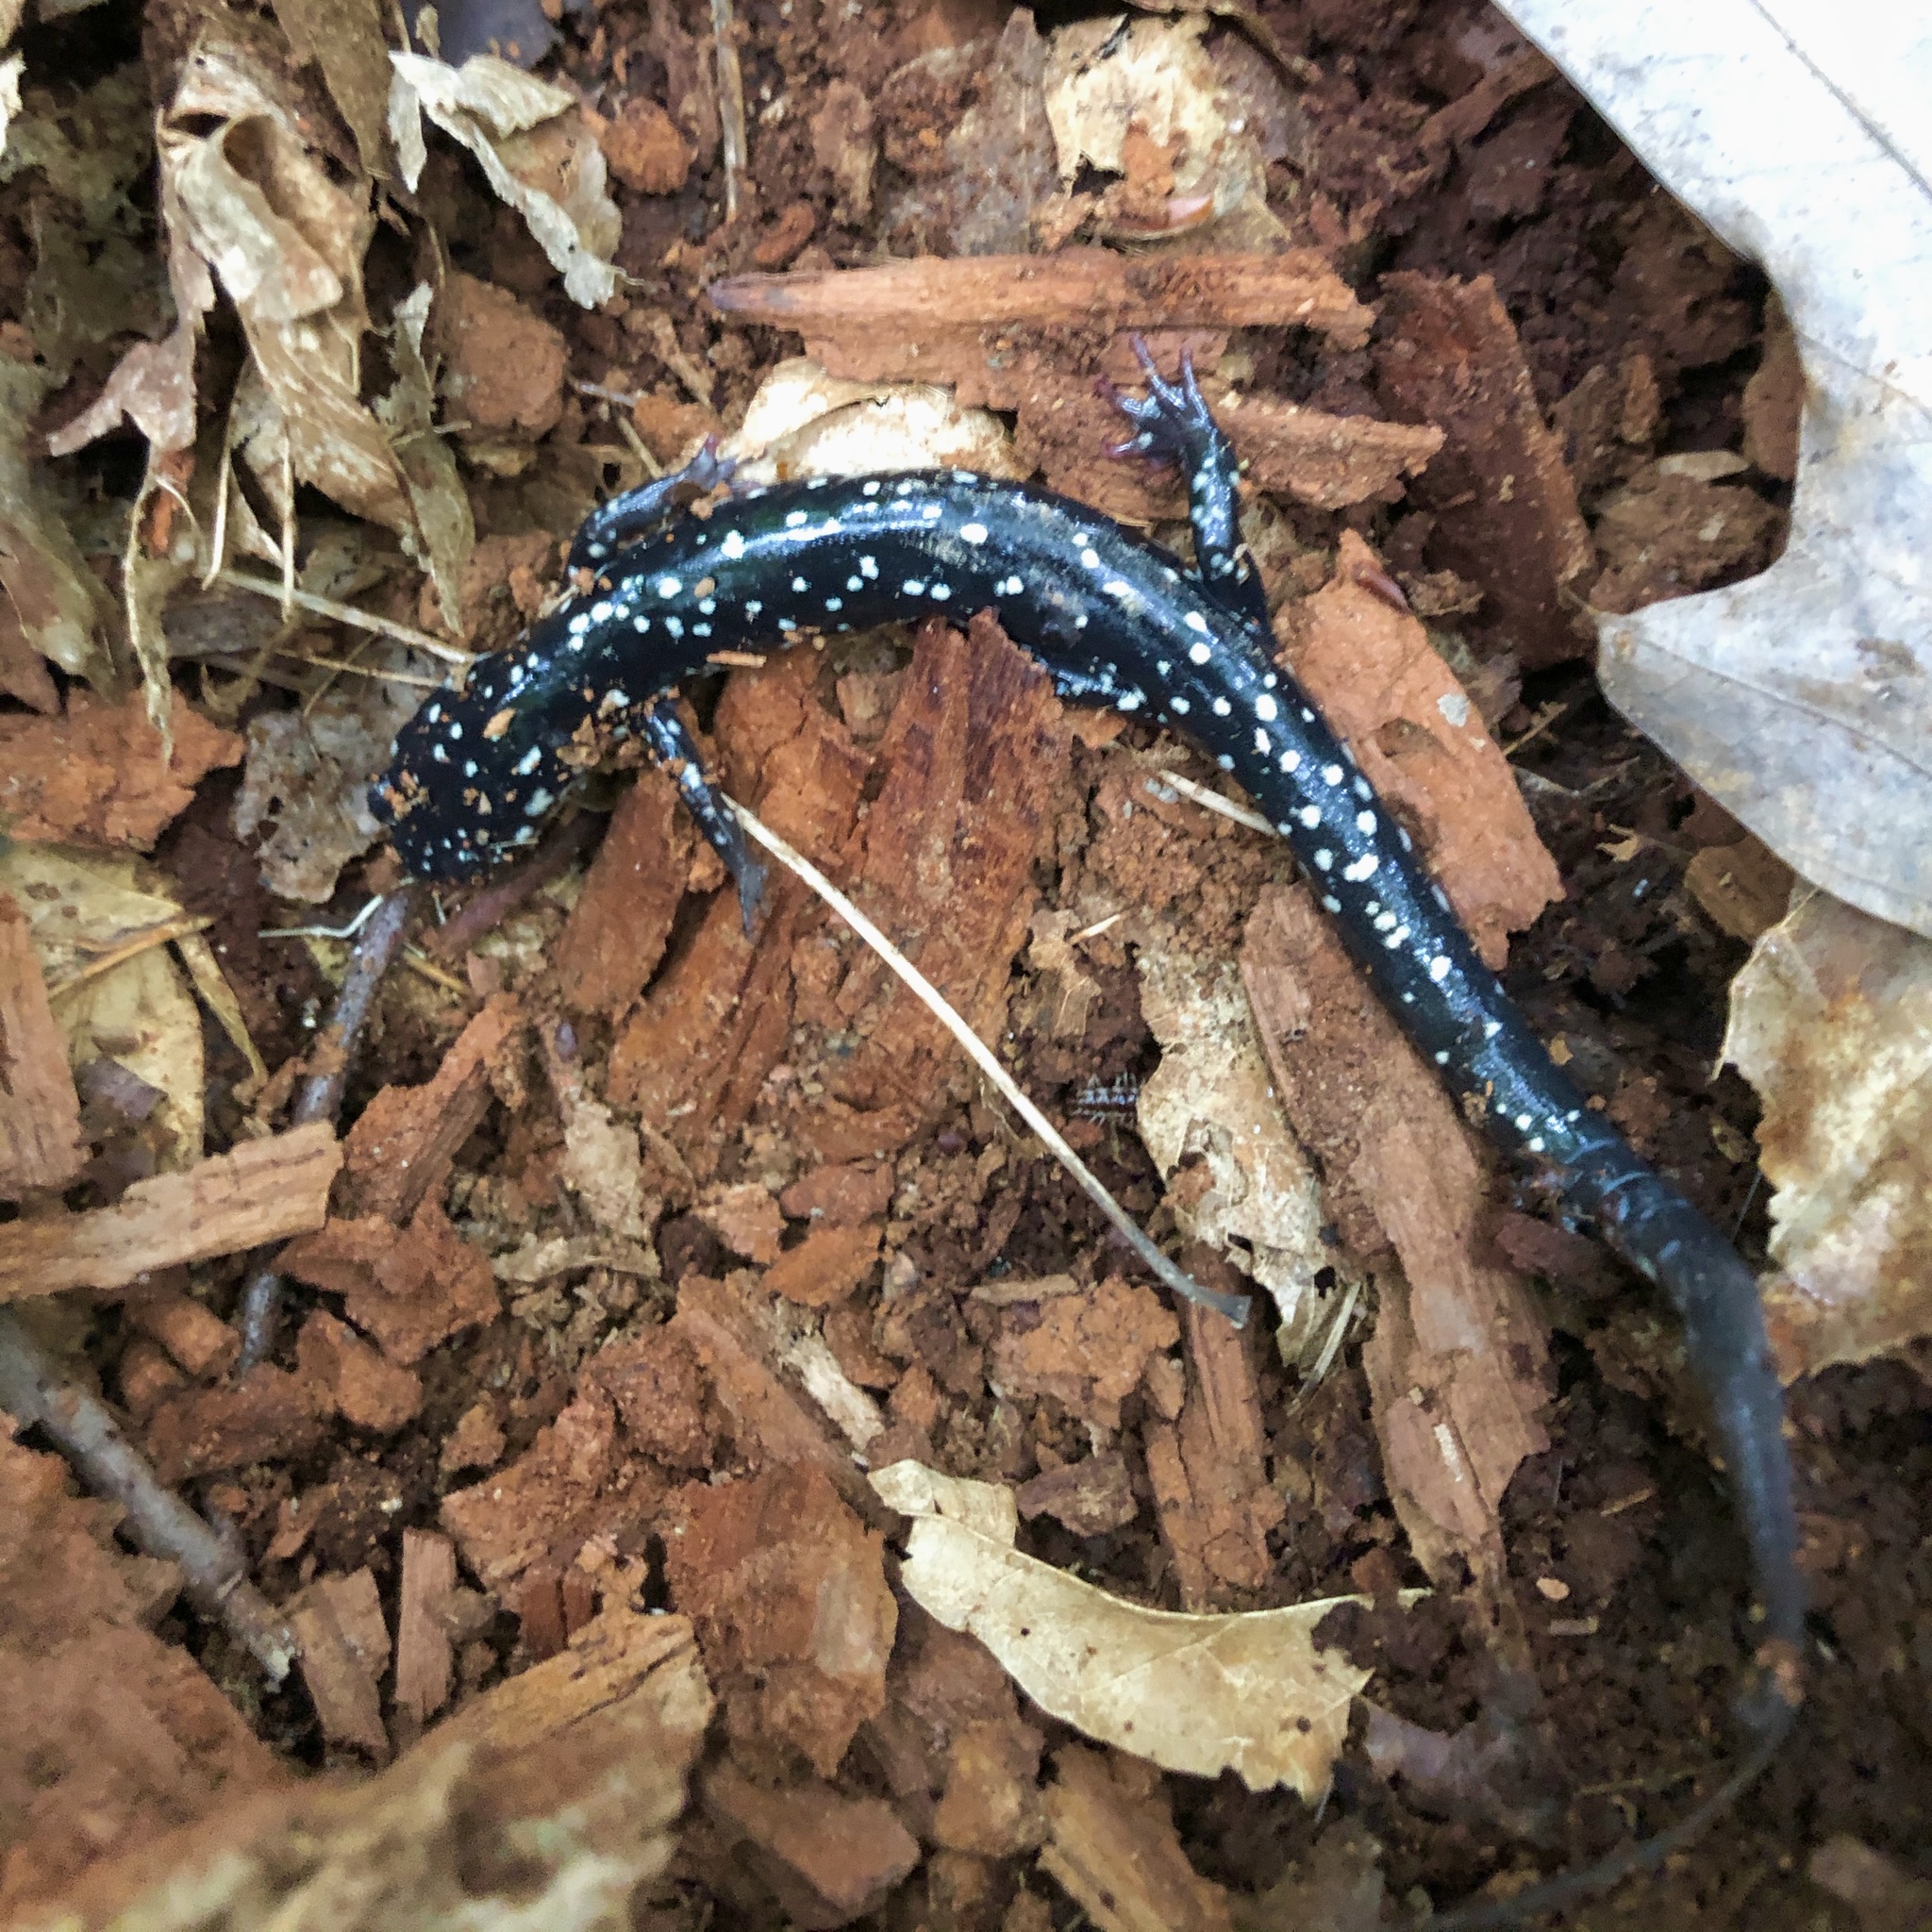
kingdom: Animalia
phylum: Chordata
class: Amphibia
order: Caudata
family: Plethodontidae
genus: Plethodon
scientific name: Plethodon glutinosus
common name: Northern slimy salamander
